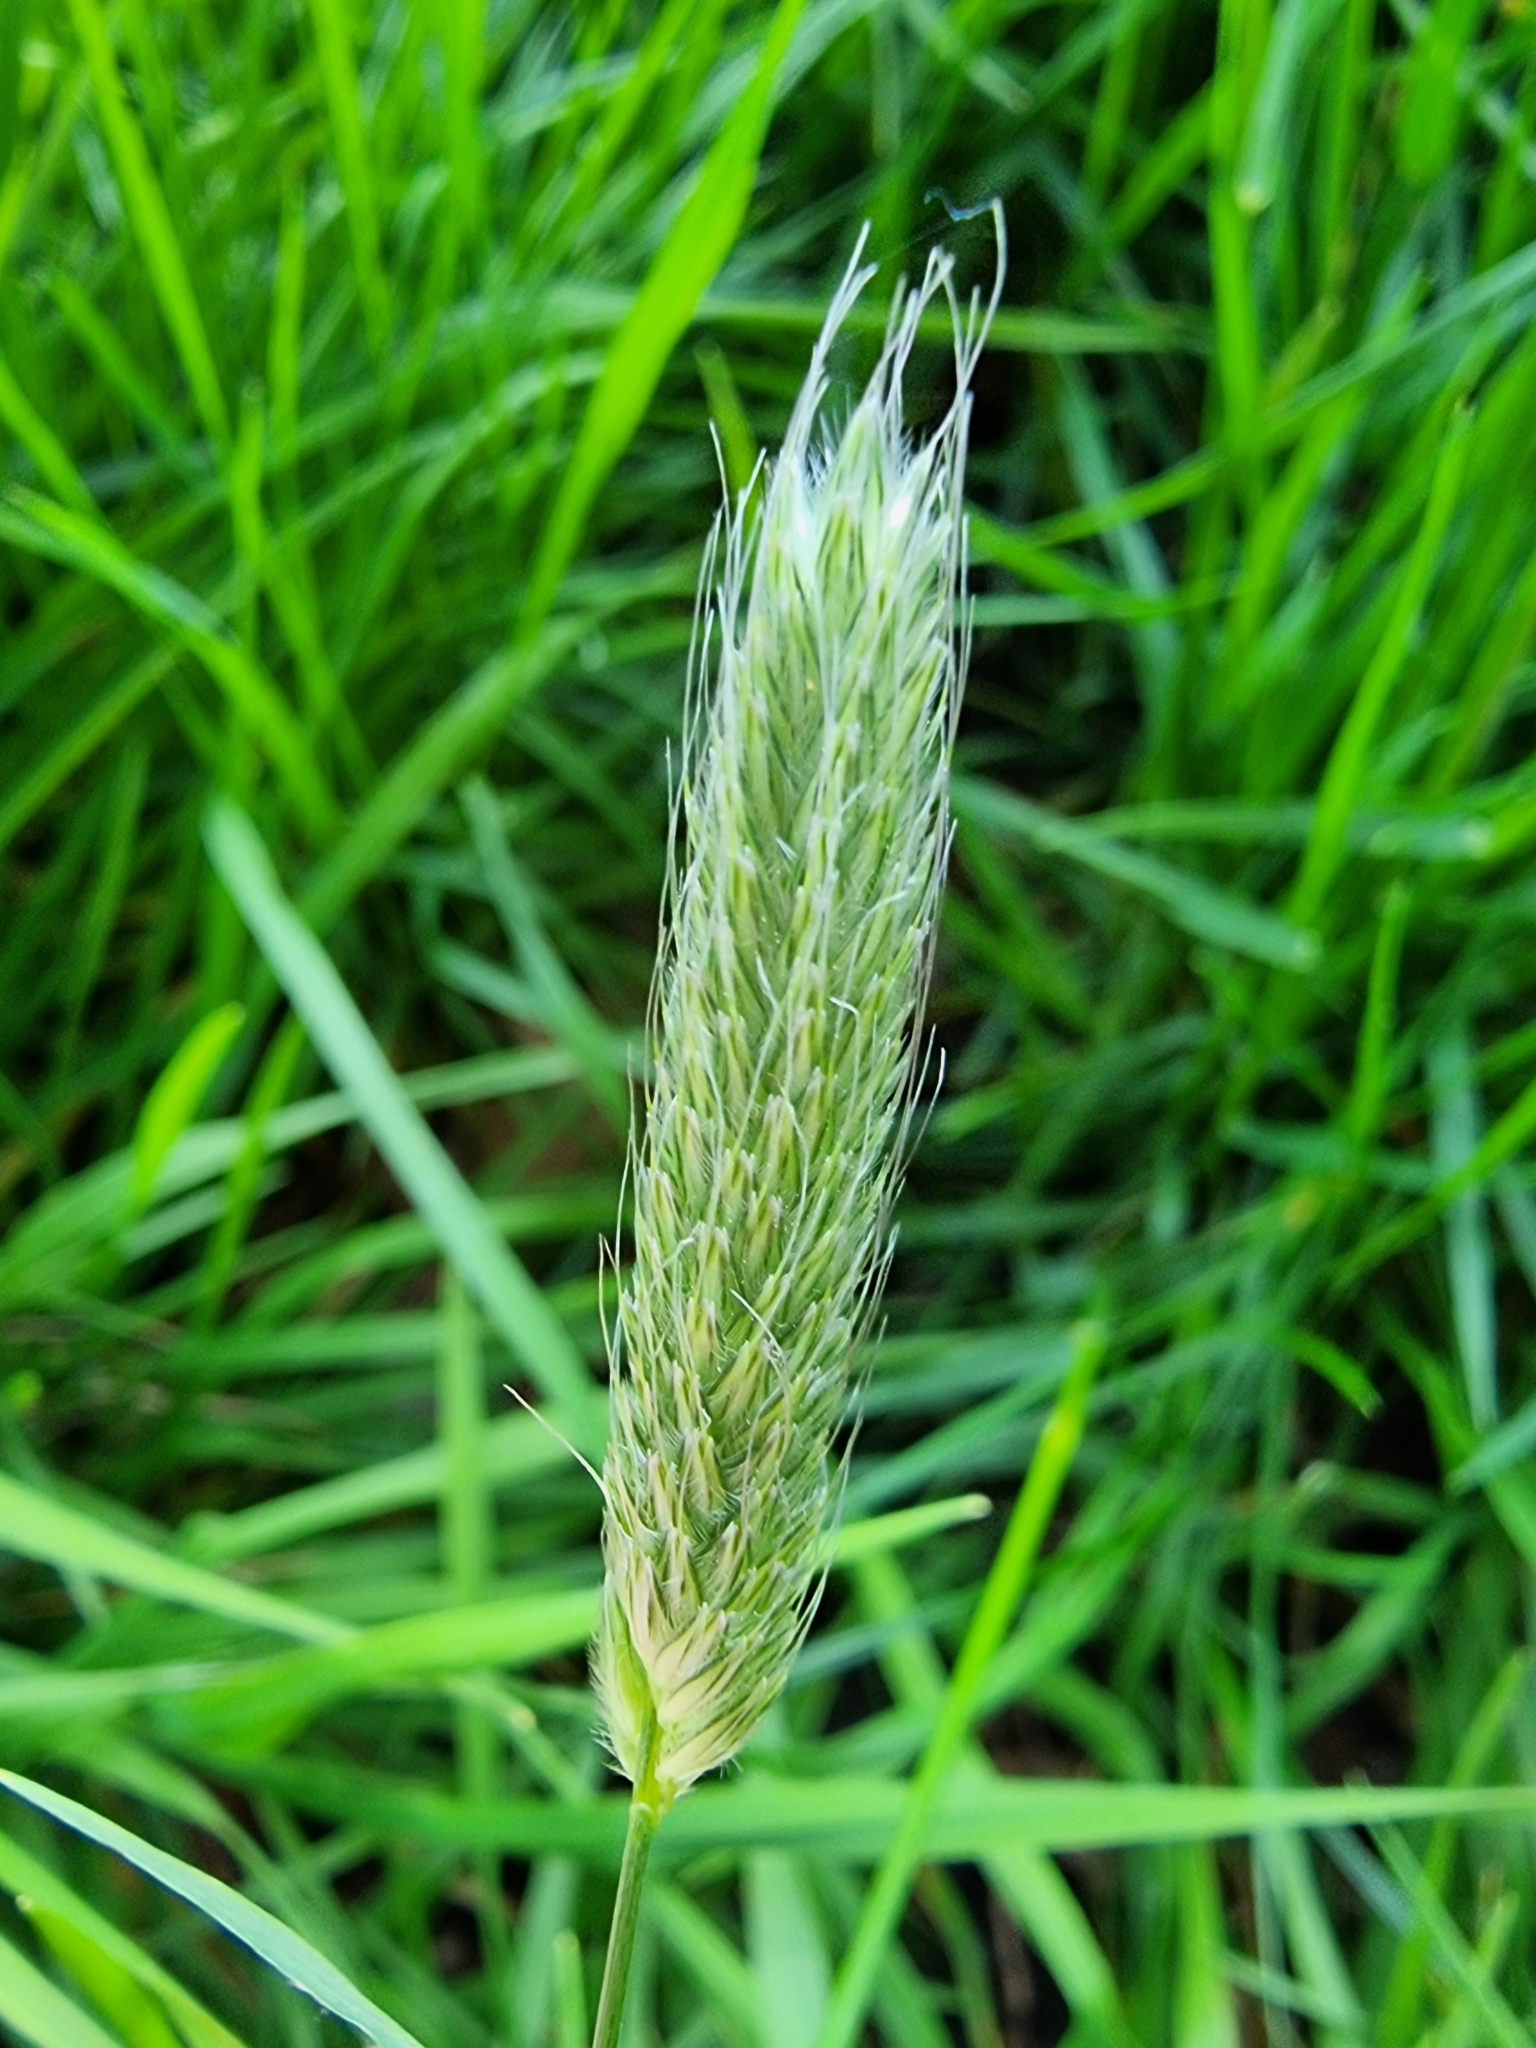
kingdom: Plantae
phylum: Tracheophyta
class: Liliopsida
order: Poales
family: Poaceae
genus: Alopecurus
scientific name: Alopecurus pratensis
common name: Meadow foxtail
